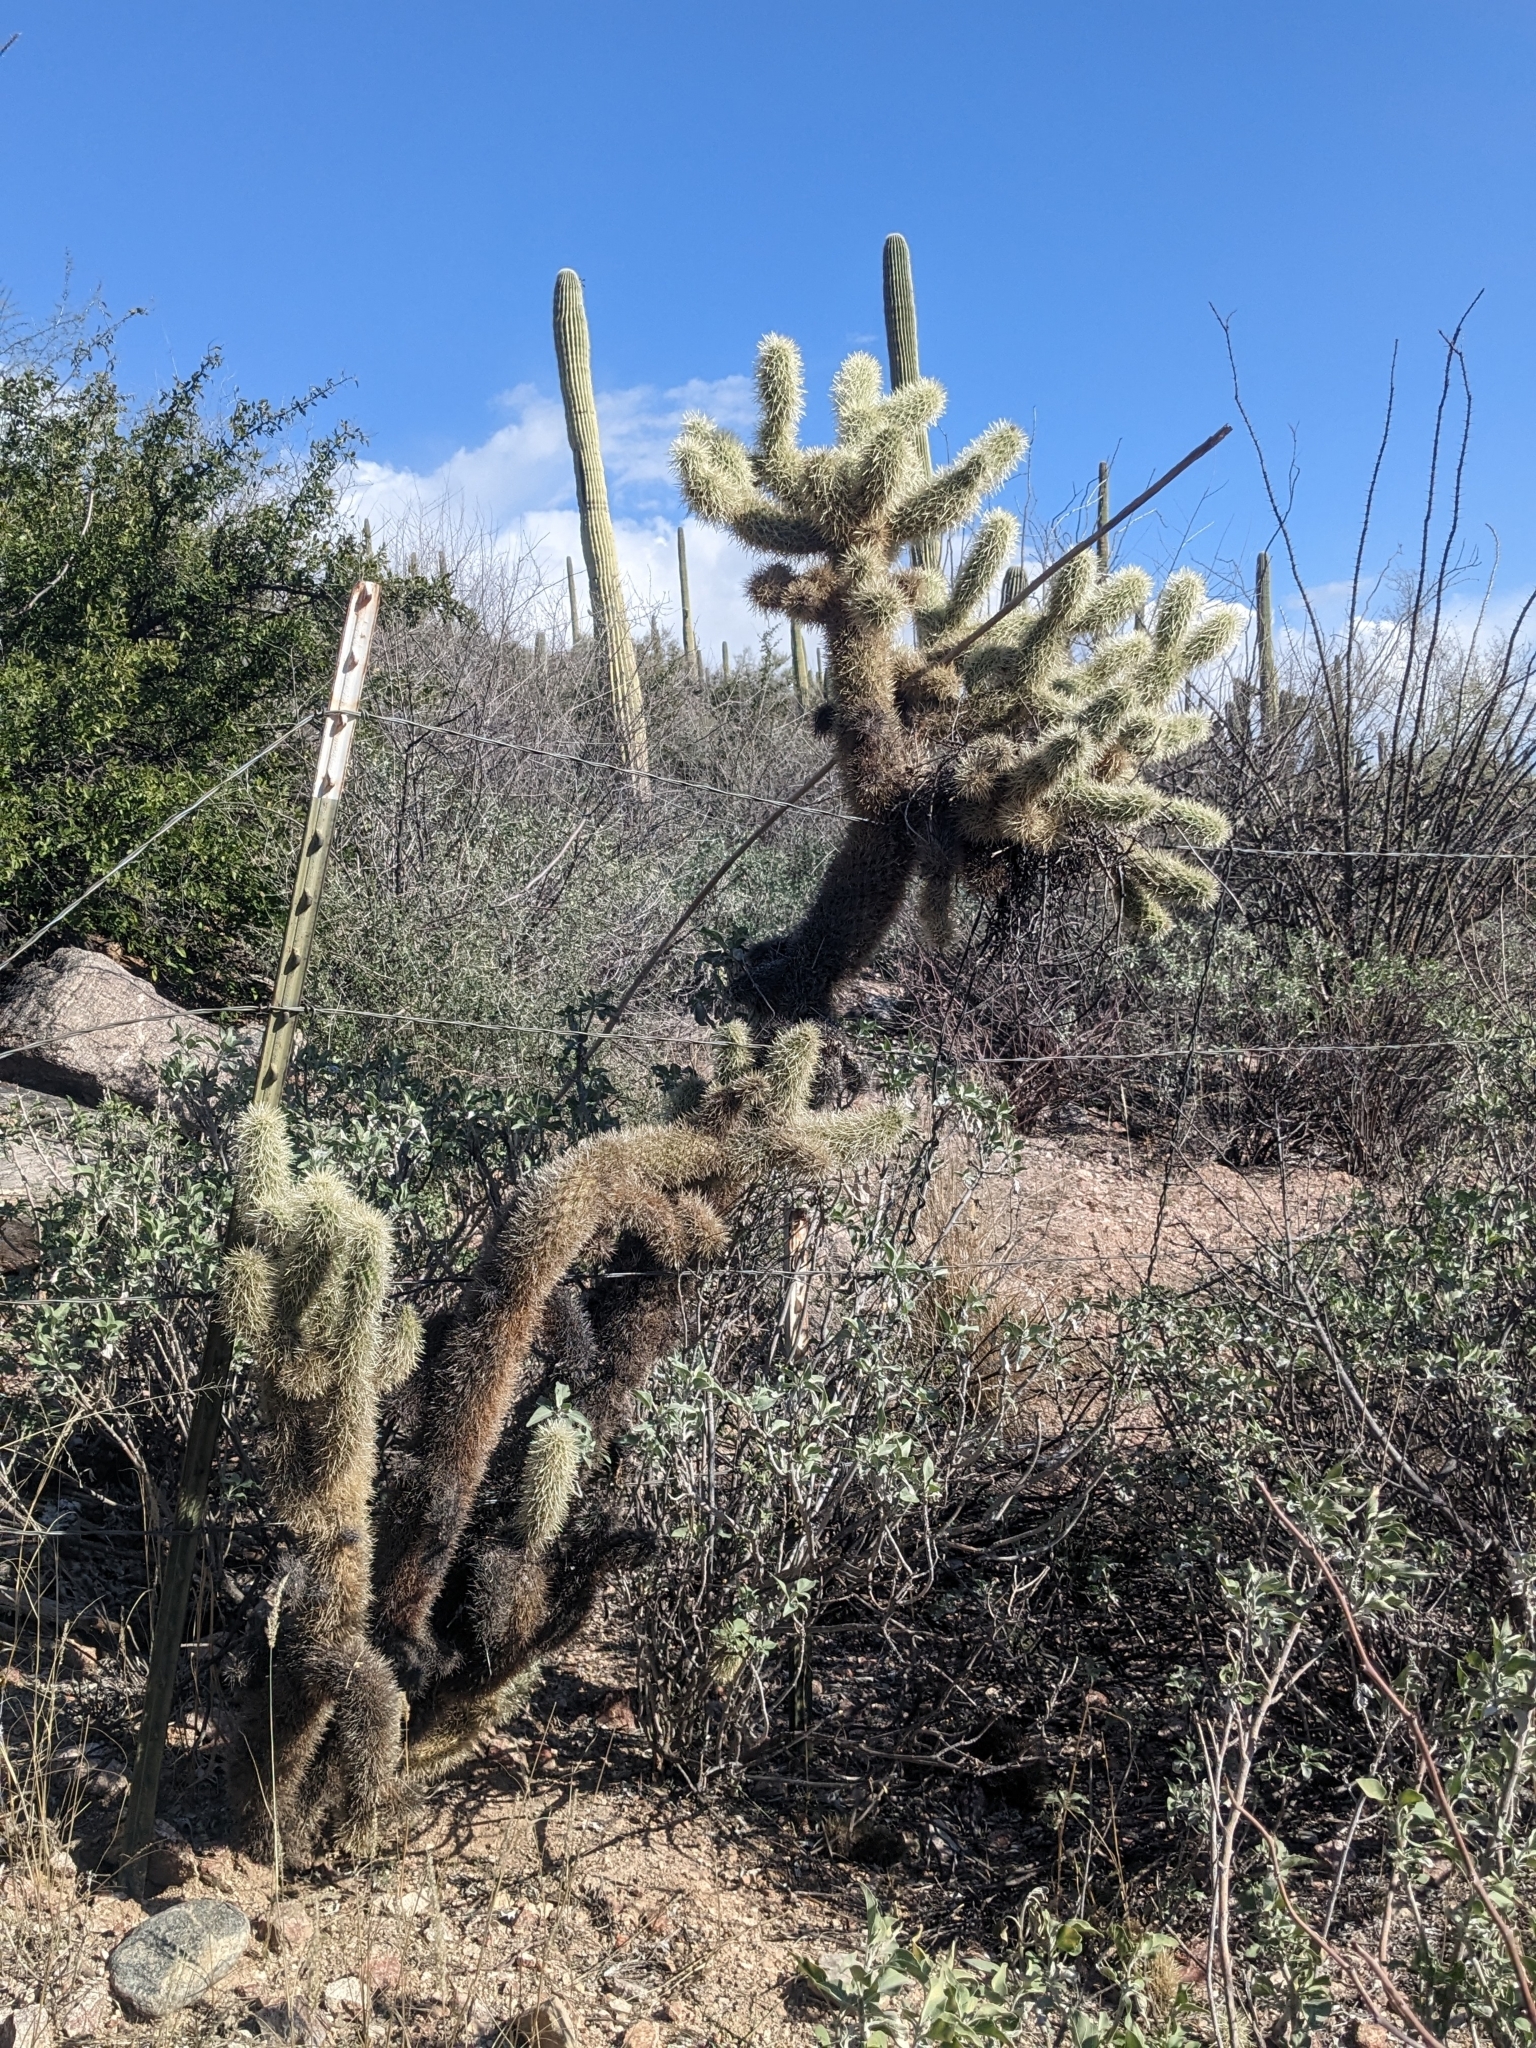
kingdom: Plantae
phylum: Tracheophyta
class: Magnoliopsida
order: Caryophyllales
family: Cactaceae
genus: Cylindropuntia
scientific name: Cylindropuntia fosbergii
